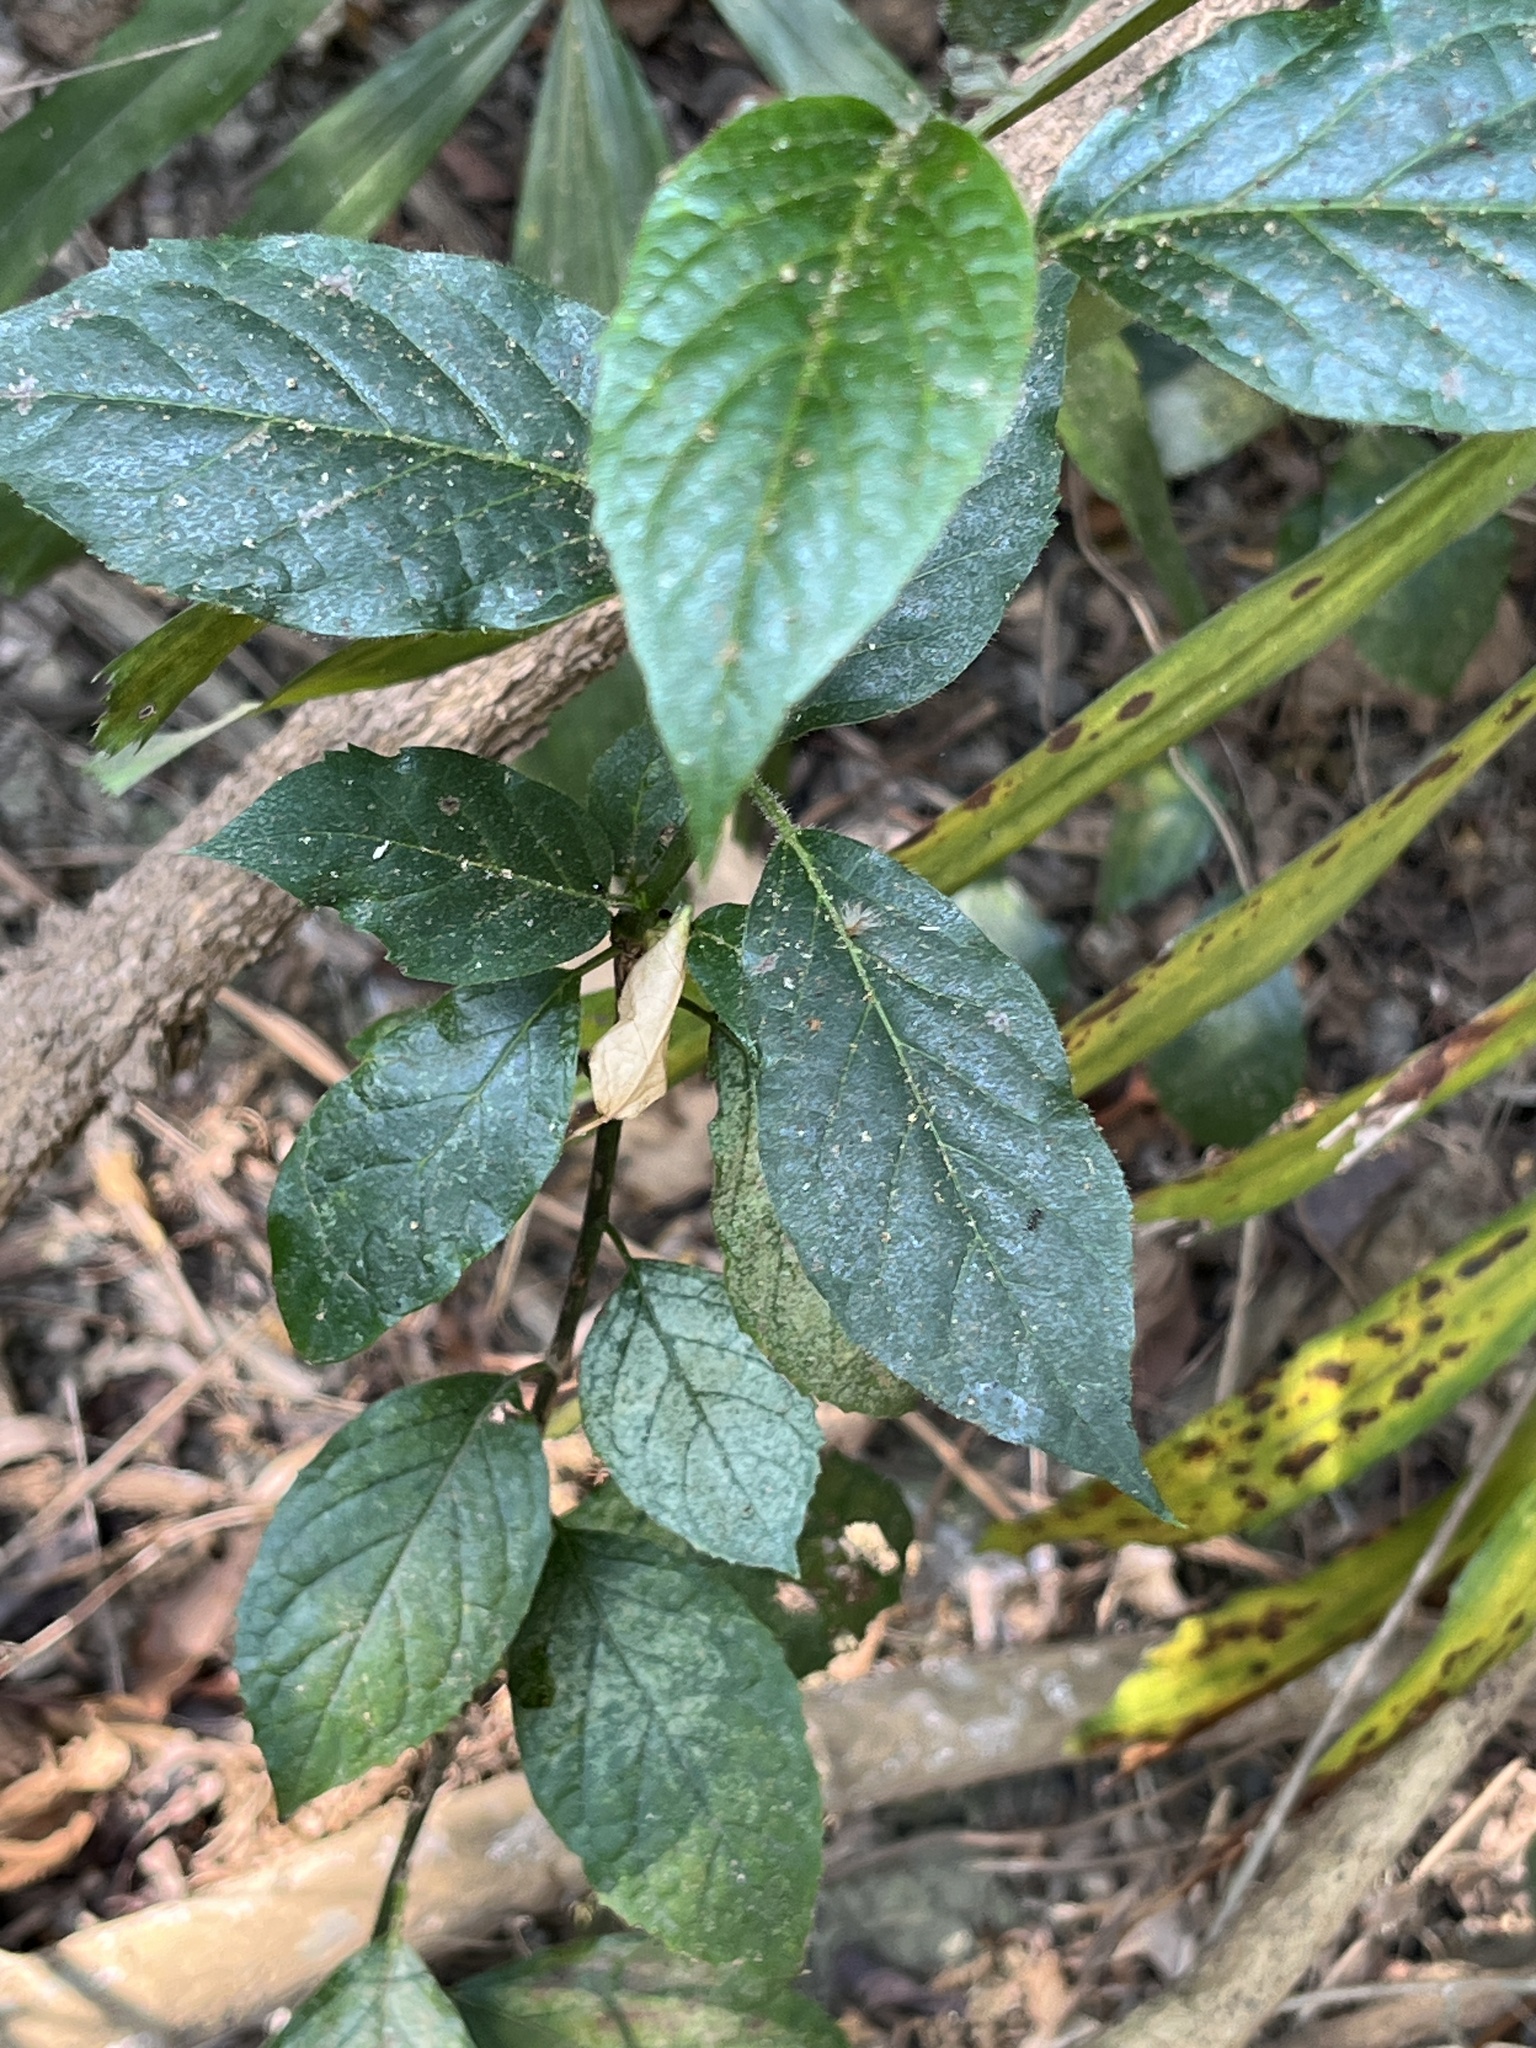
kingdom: Plantae
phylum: Tracheophyta
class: Magnoliopsida
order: Boraginales
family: Ehretiaceae
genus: Ehretia
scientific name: Ehretia resinosa
